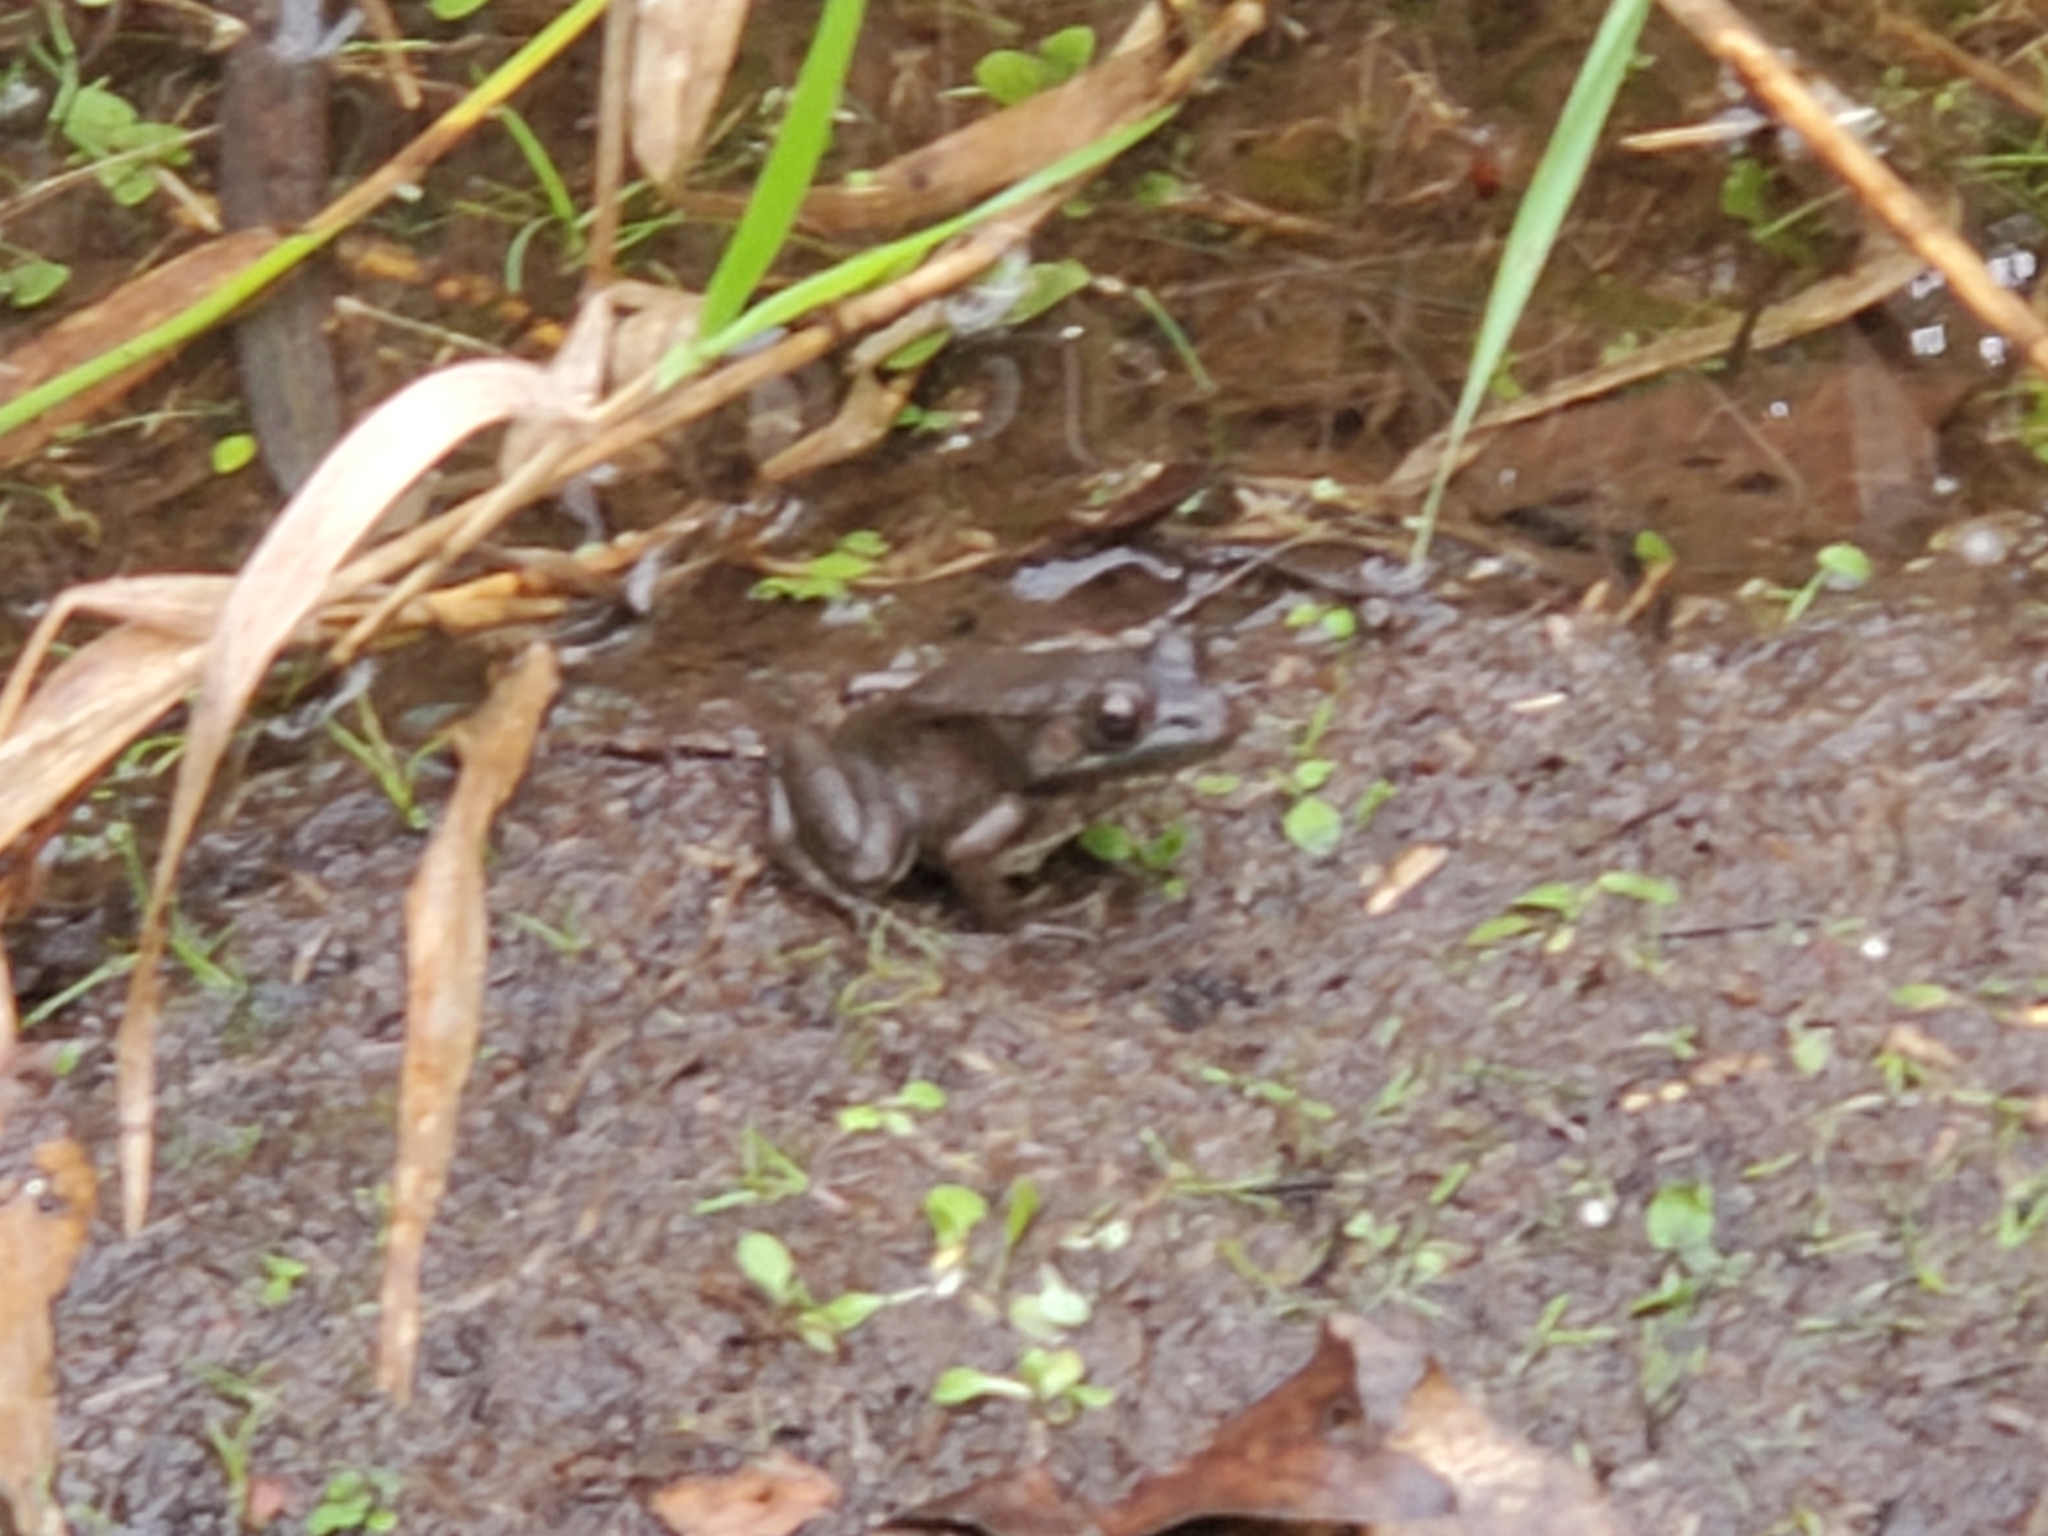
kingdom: Animalia
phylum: Chordata
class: Amphibia
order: Anura
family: Ranidae
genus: Lithobates
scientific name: Lithobates clamitans
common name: Green frog
